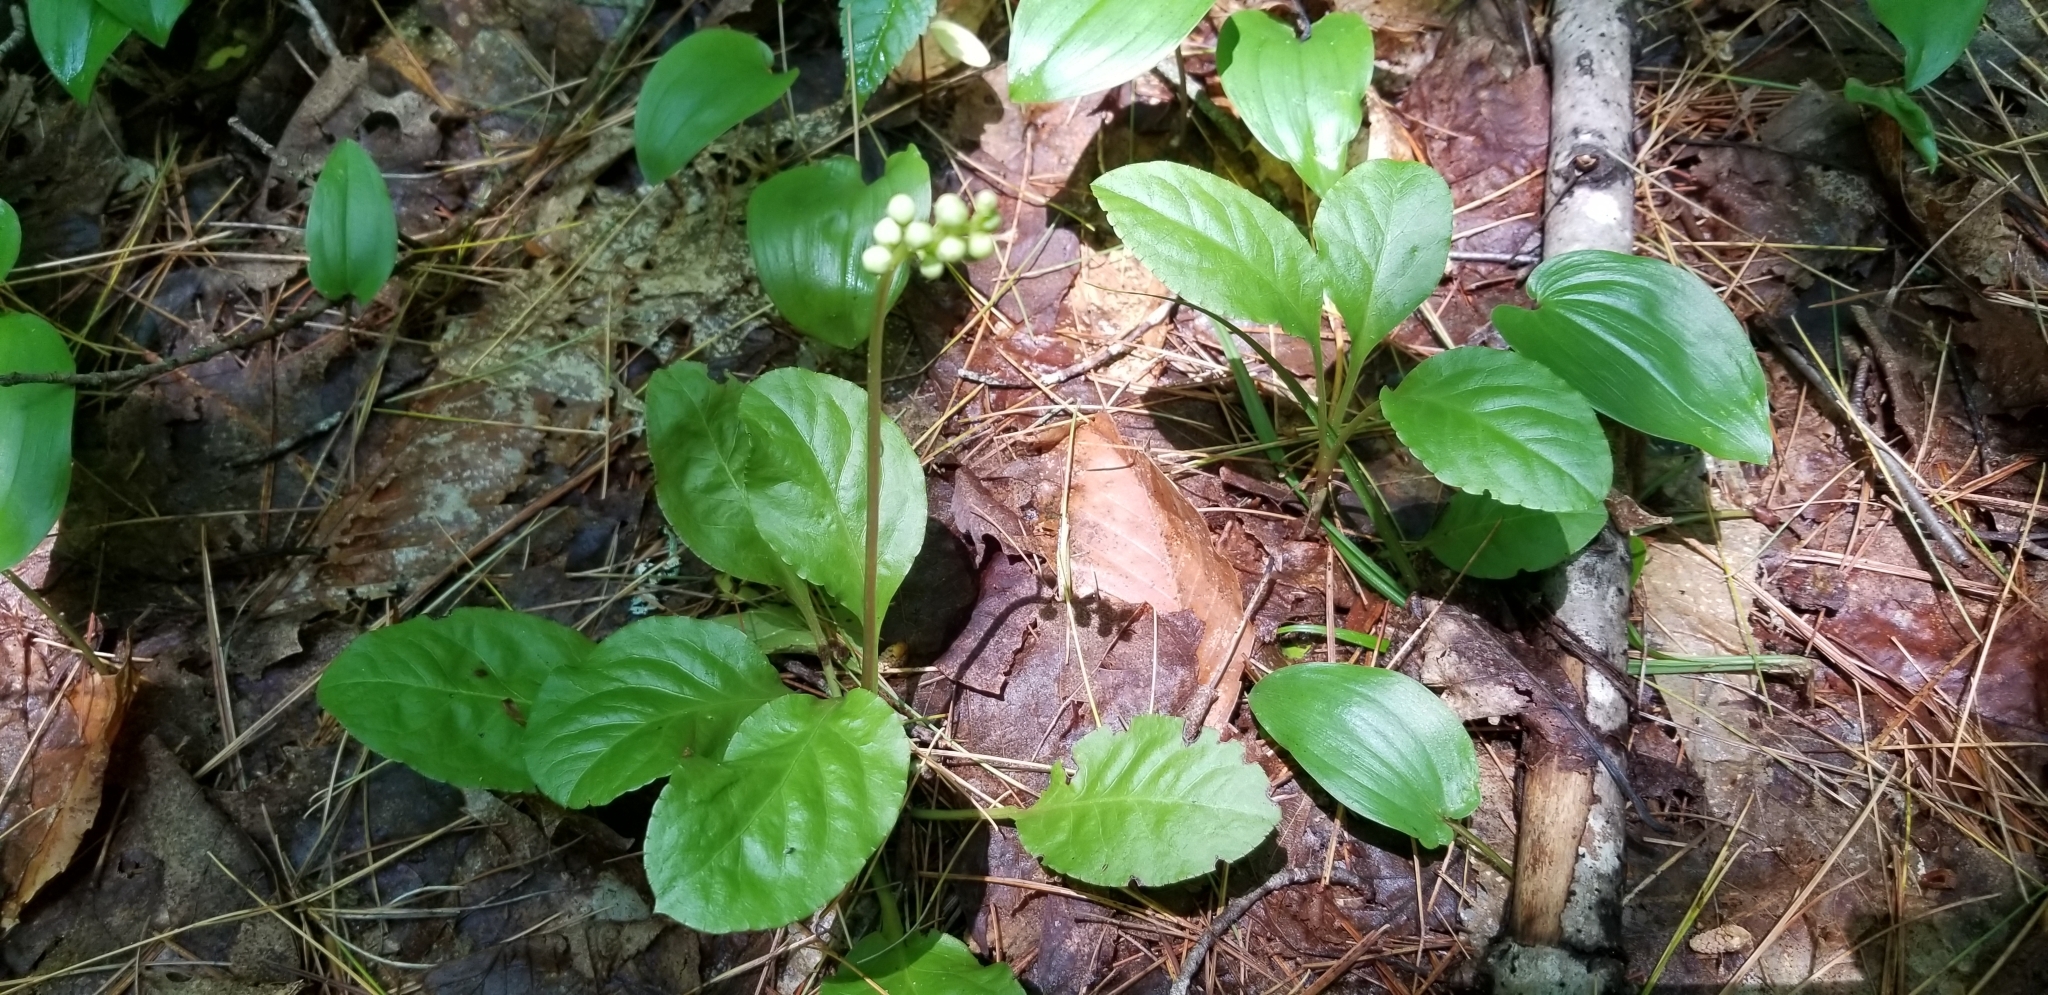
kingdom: Plantae
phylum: Tracheophyta
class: Magnoliopsida
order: Ericales
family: Ericaceae
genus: Pyrola
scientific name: Pyrola elliptica
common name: Shinleaf
